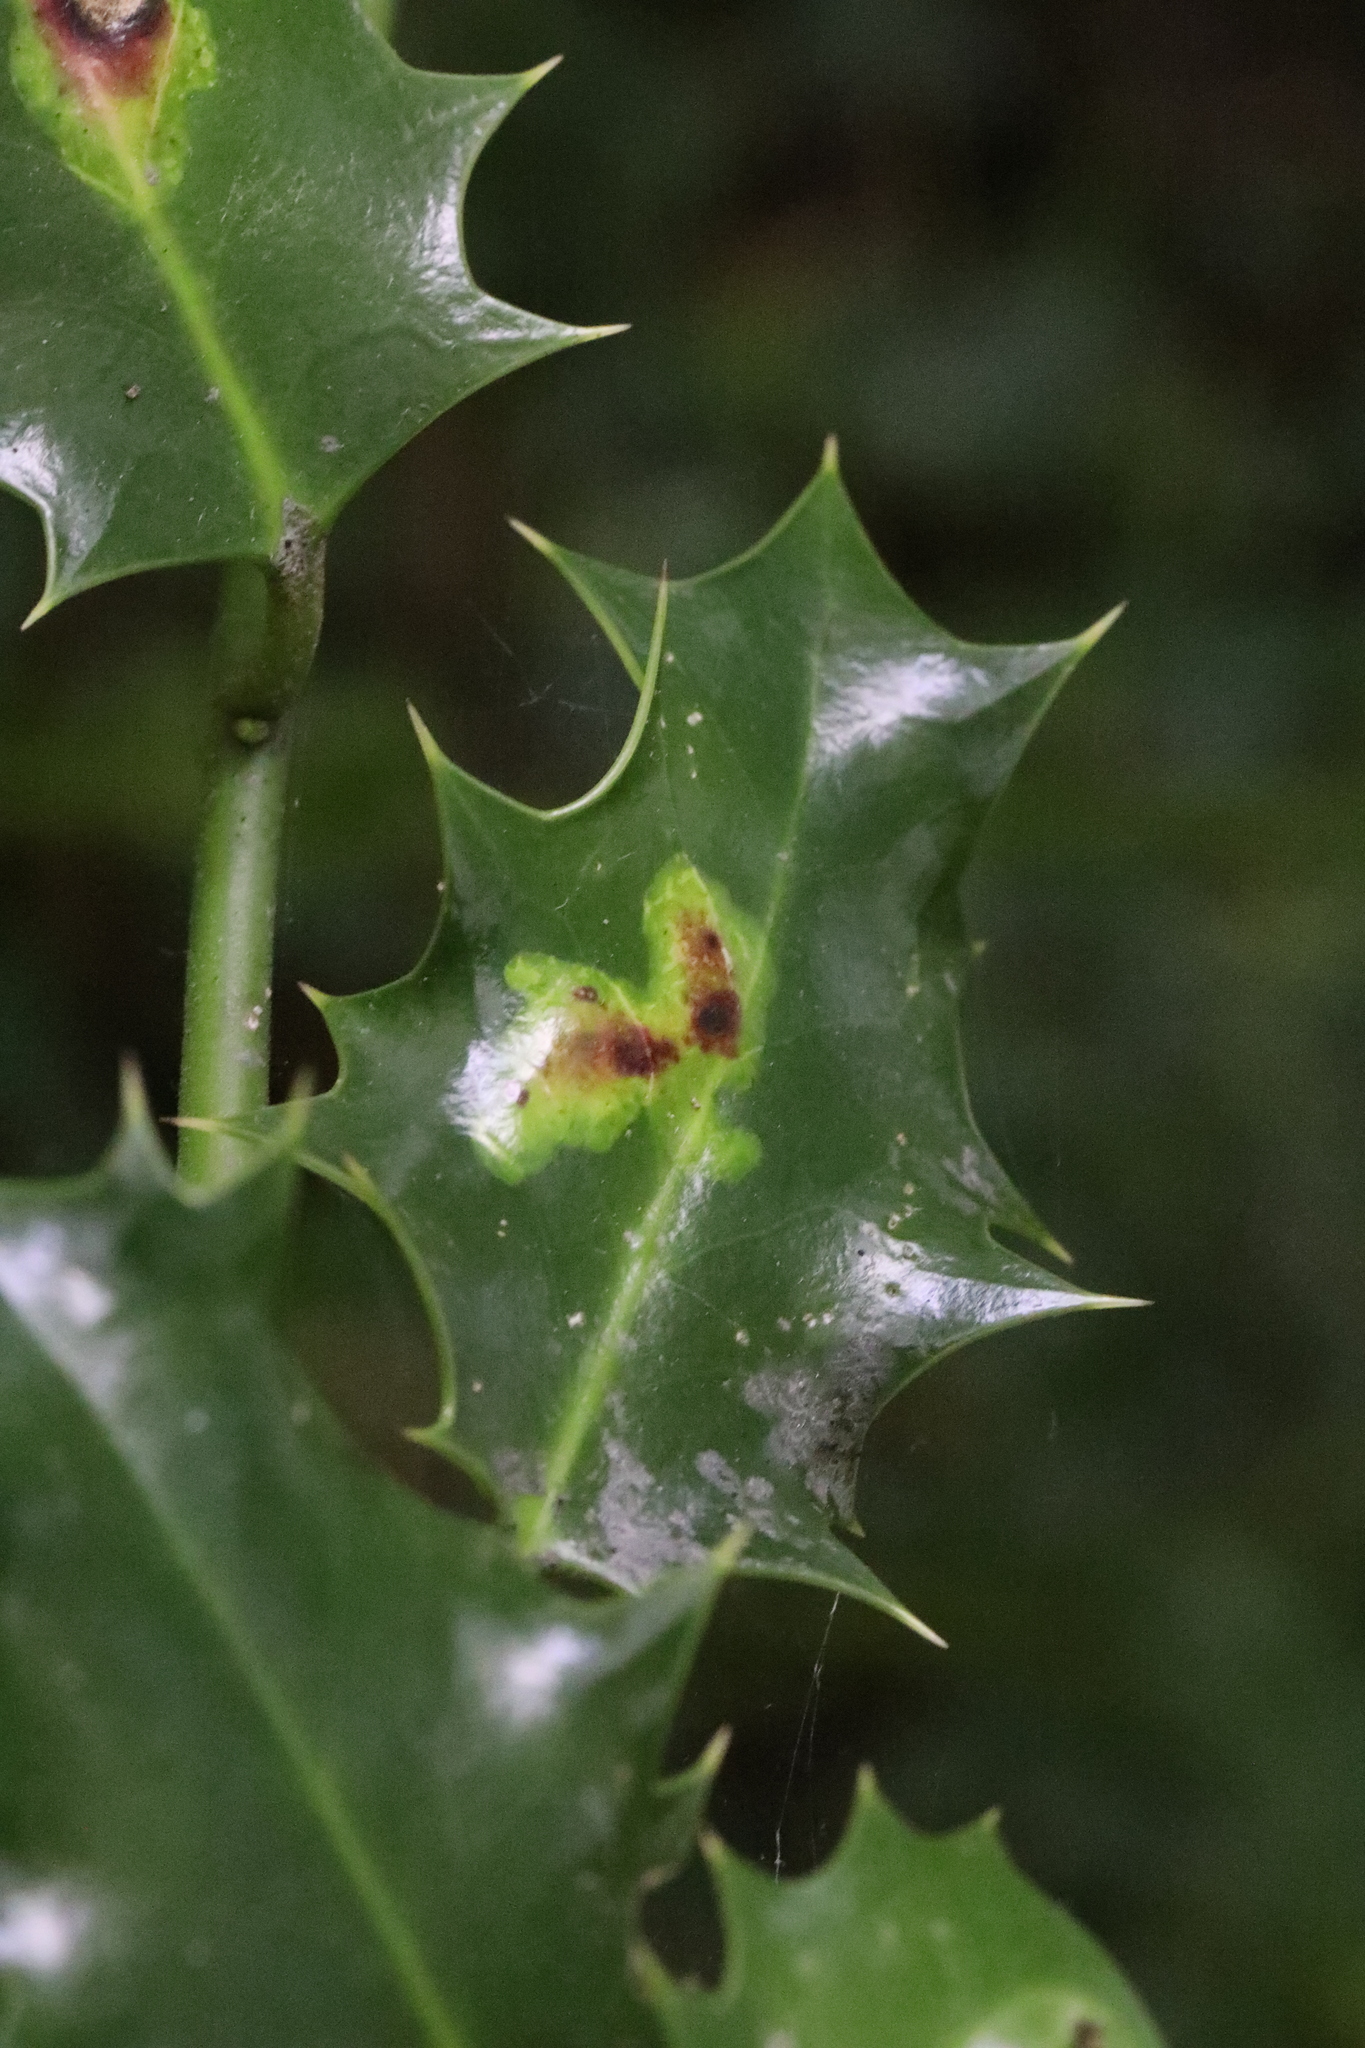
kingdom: Animalia
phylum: Arthropoda
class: Insecta
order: Diptera
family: Agromyzidae
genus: Phytomyza
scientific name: Phytomyza ilicis
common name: Holly leafminer
